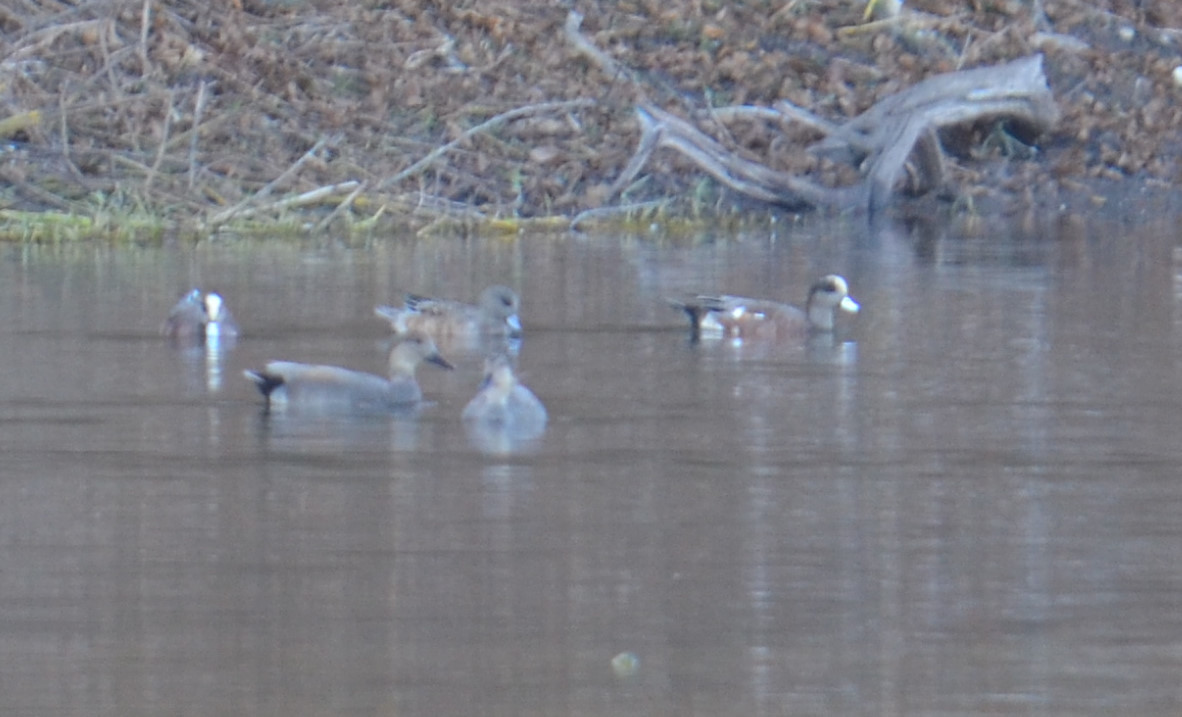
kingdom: Animalia
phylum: Chordata
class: Aves
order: Anseriformes
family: Anatidae
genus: Mareca
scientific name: Mareca americana
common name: American wigeon
